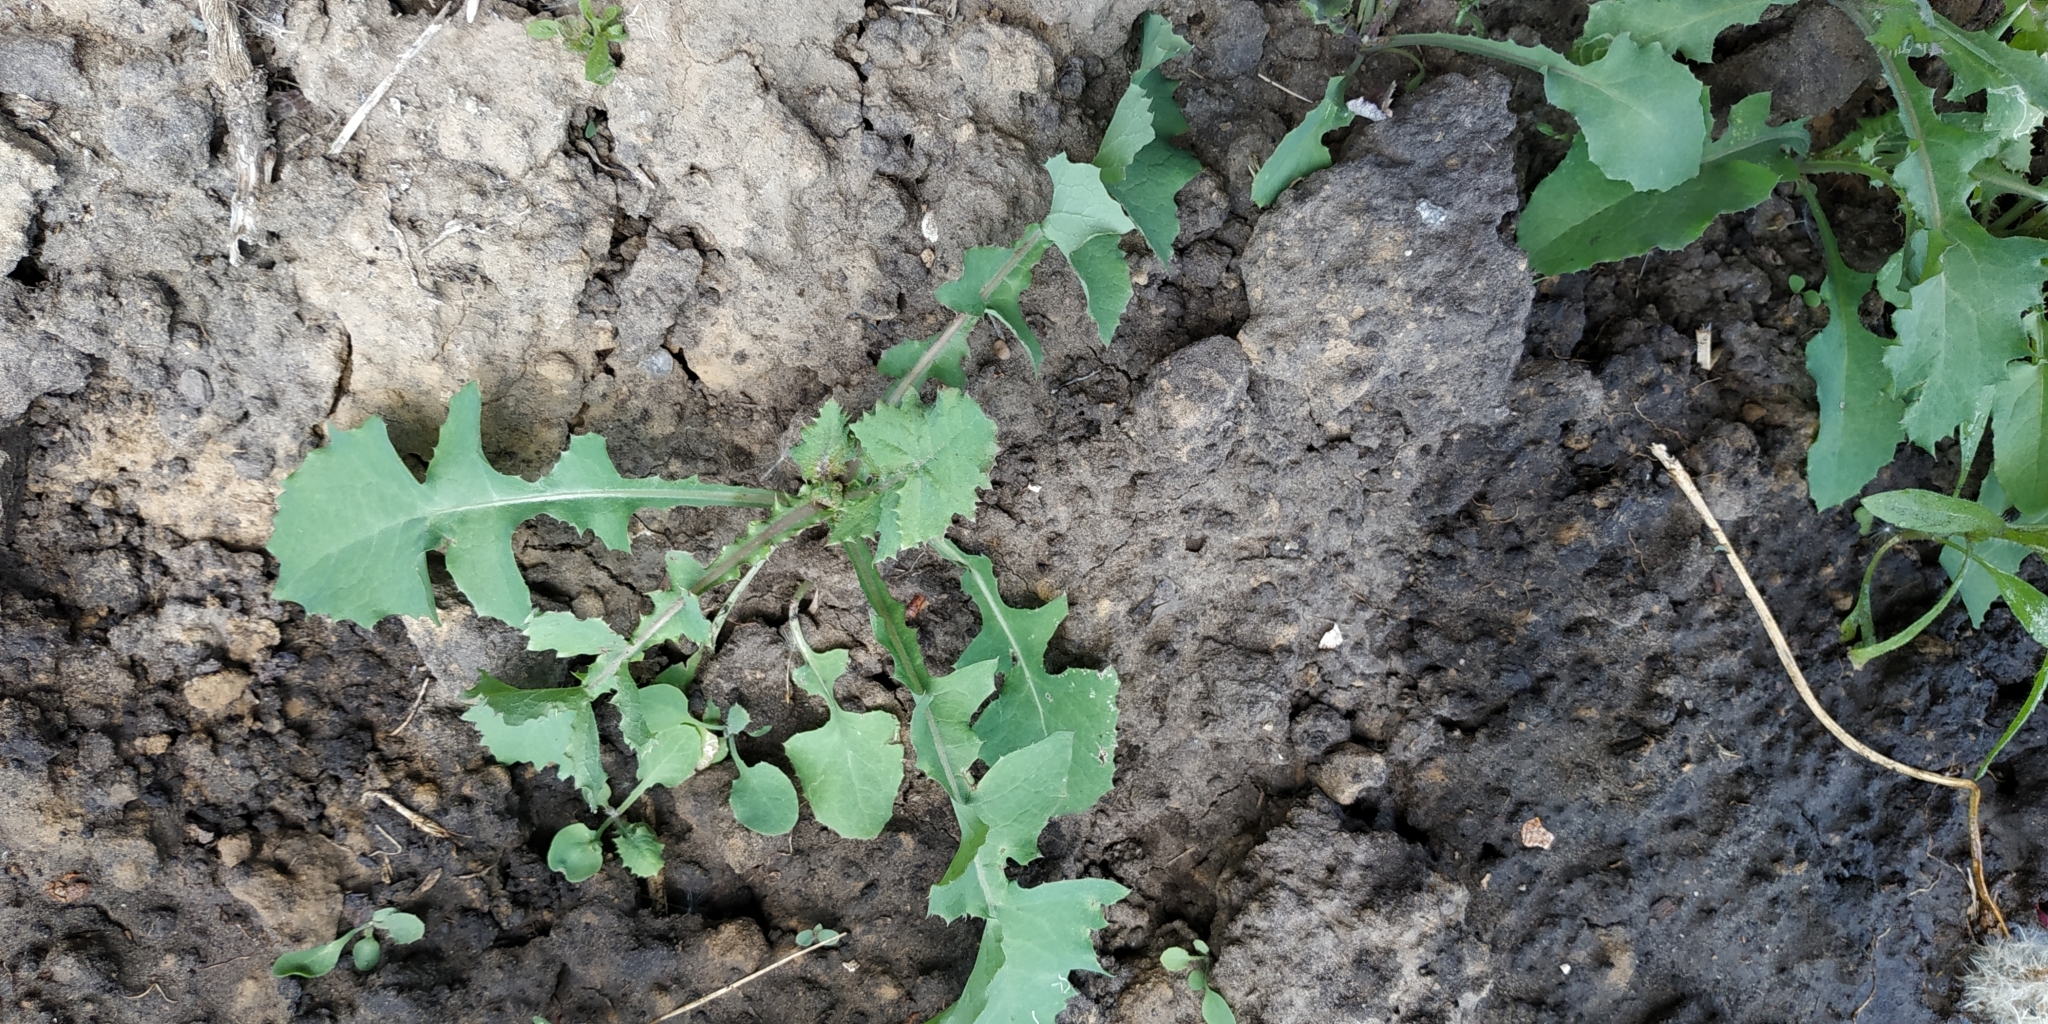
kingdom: Plantae
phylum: Tracheophyta
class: Magnoliopsida
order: Asterales
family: Asteraceae
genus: Sonchus
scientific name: Sonchus oleraceus
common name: Common sowthistle
